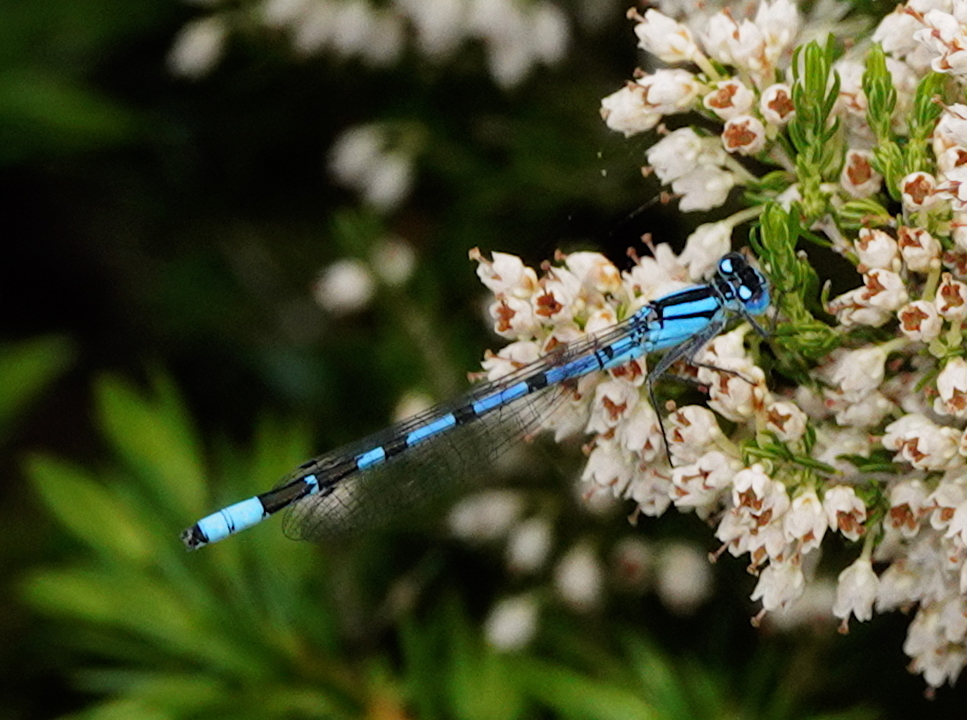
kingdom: Animalia
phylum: Arthropoda
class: Insecta
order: Odonata
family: Coenagrionidae
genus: Enallagma
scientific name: Enallagma cyathigerum
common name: Common blue damselfly
